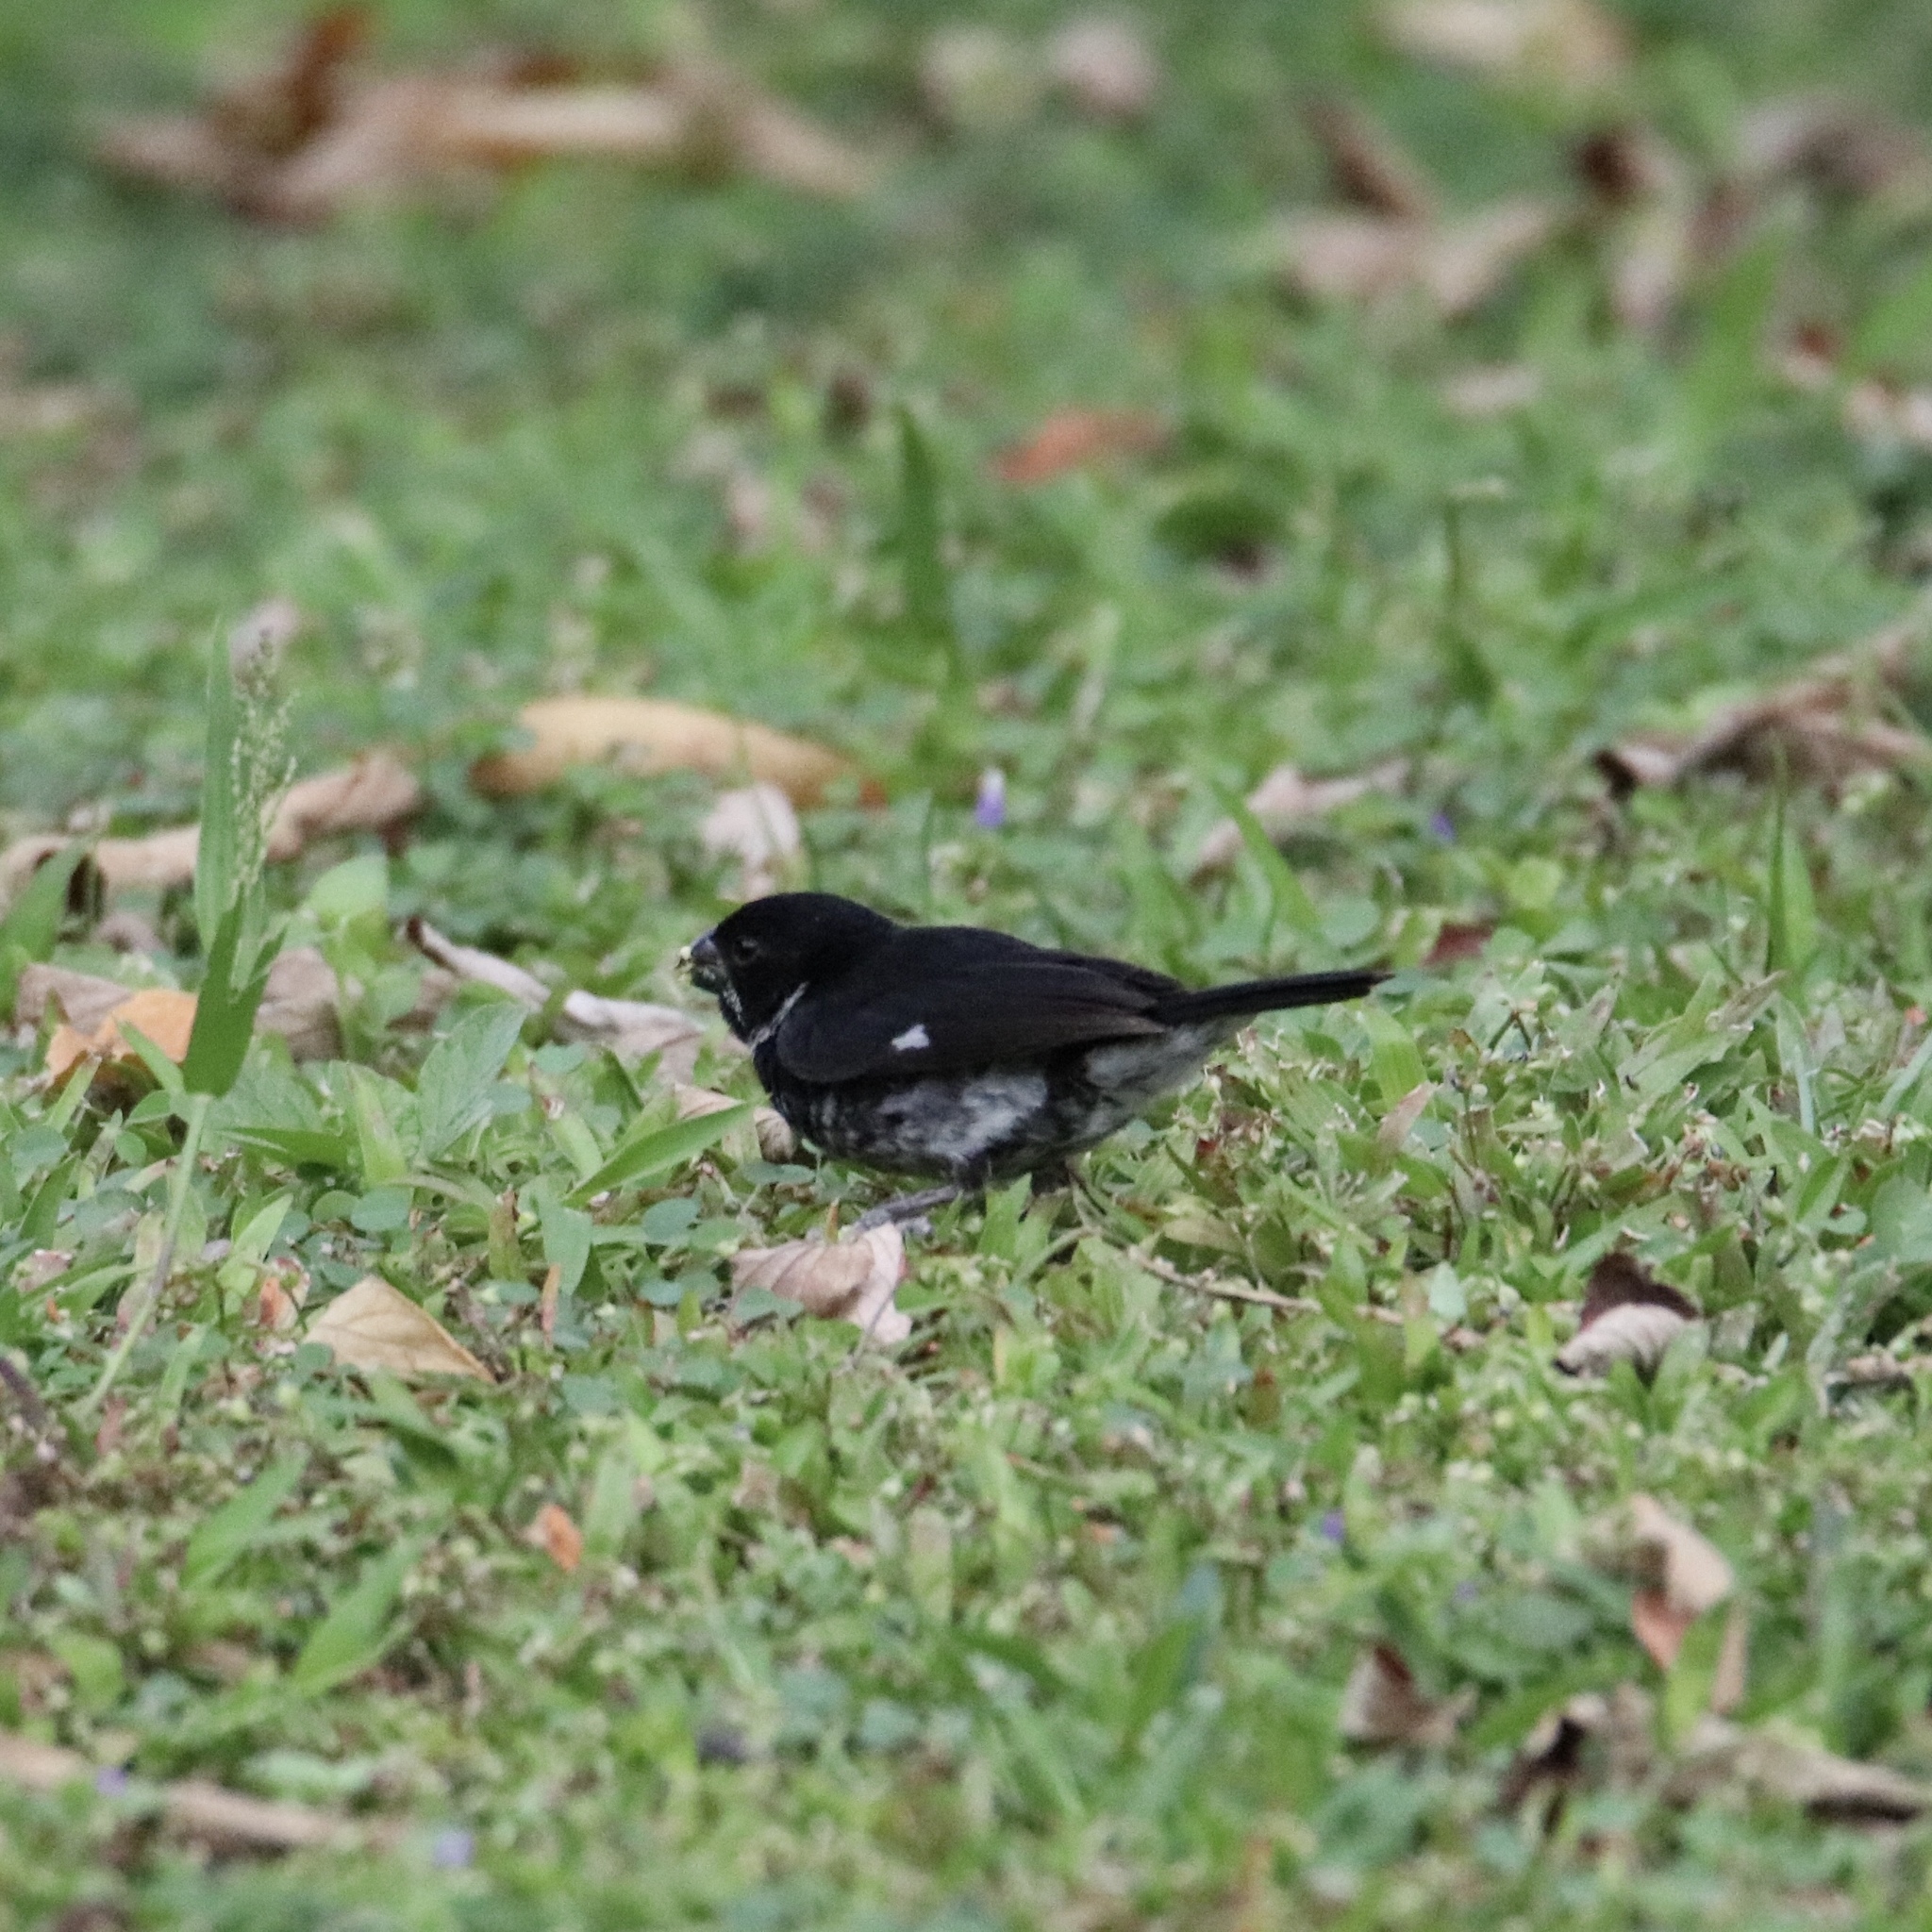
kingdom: Animalia
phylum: Chordata
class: Aves
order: Passeriformes
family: Thraupidae
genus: Sporophila
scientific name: Sporophila corvina
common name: Variable seedeater
